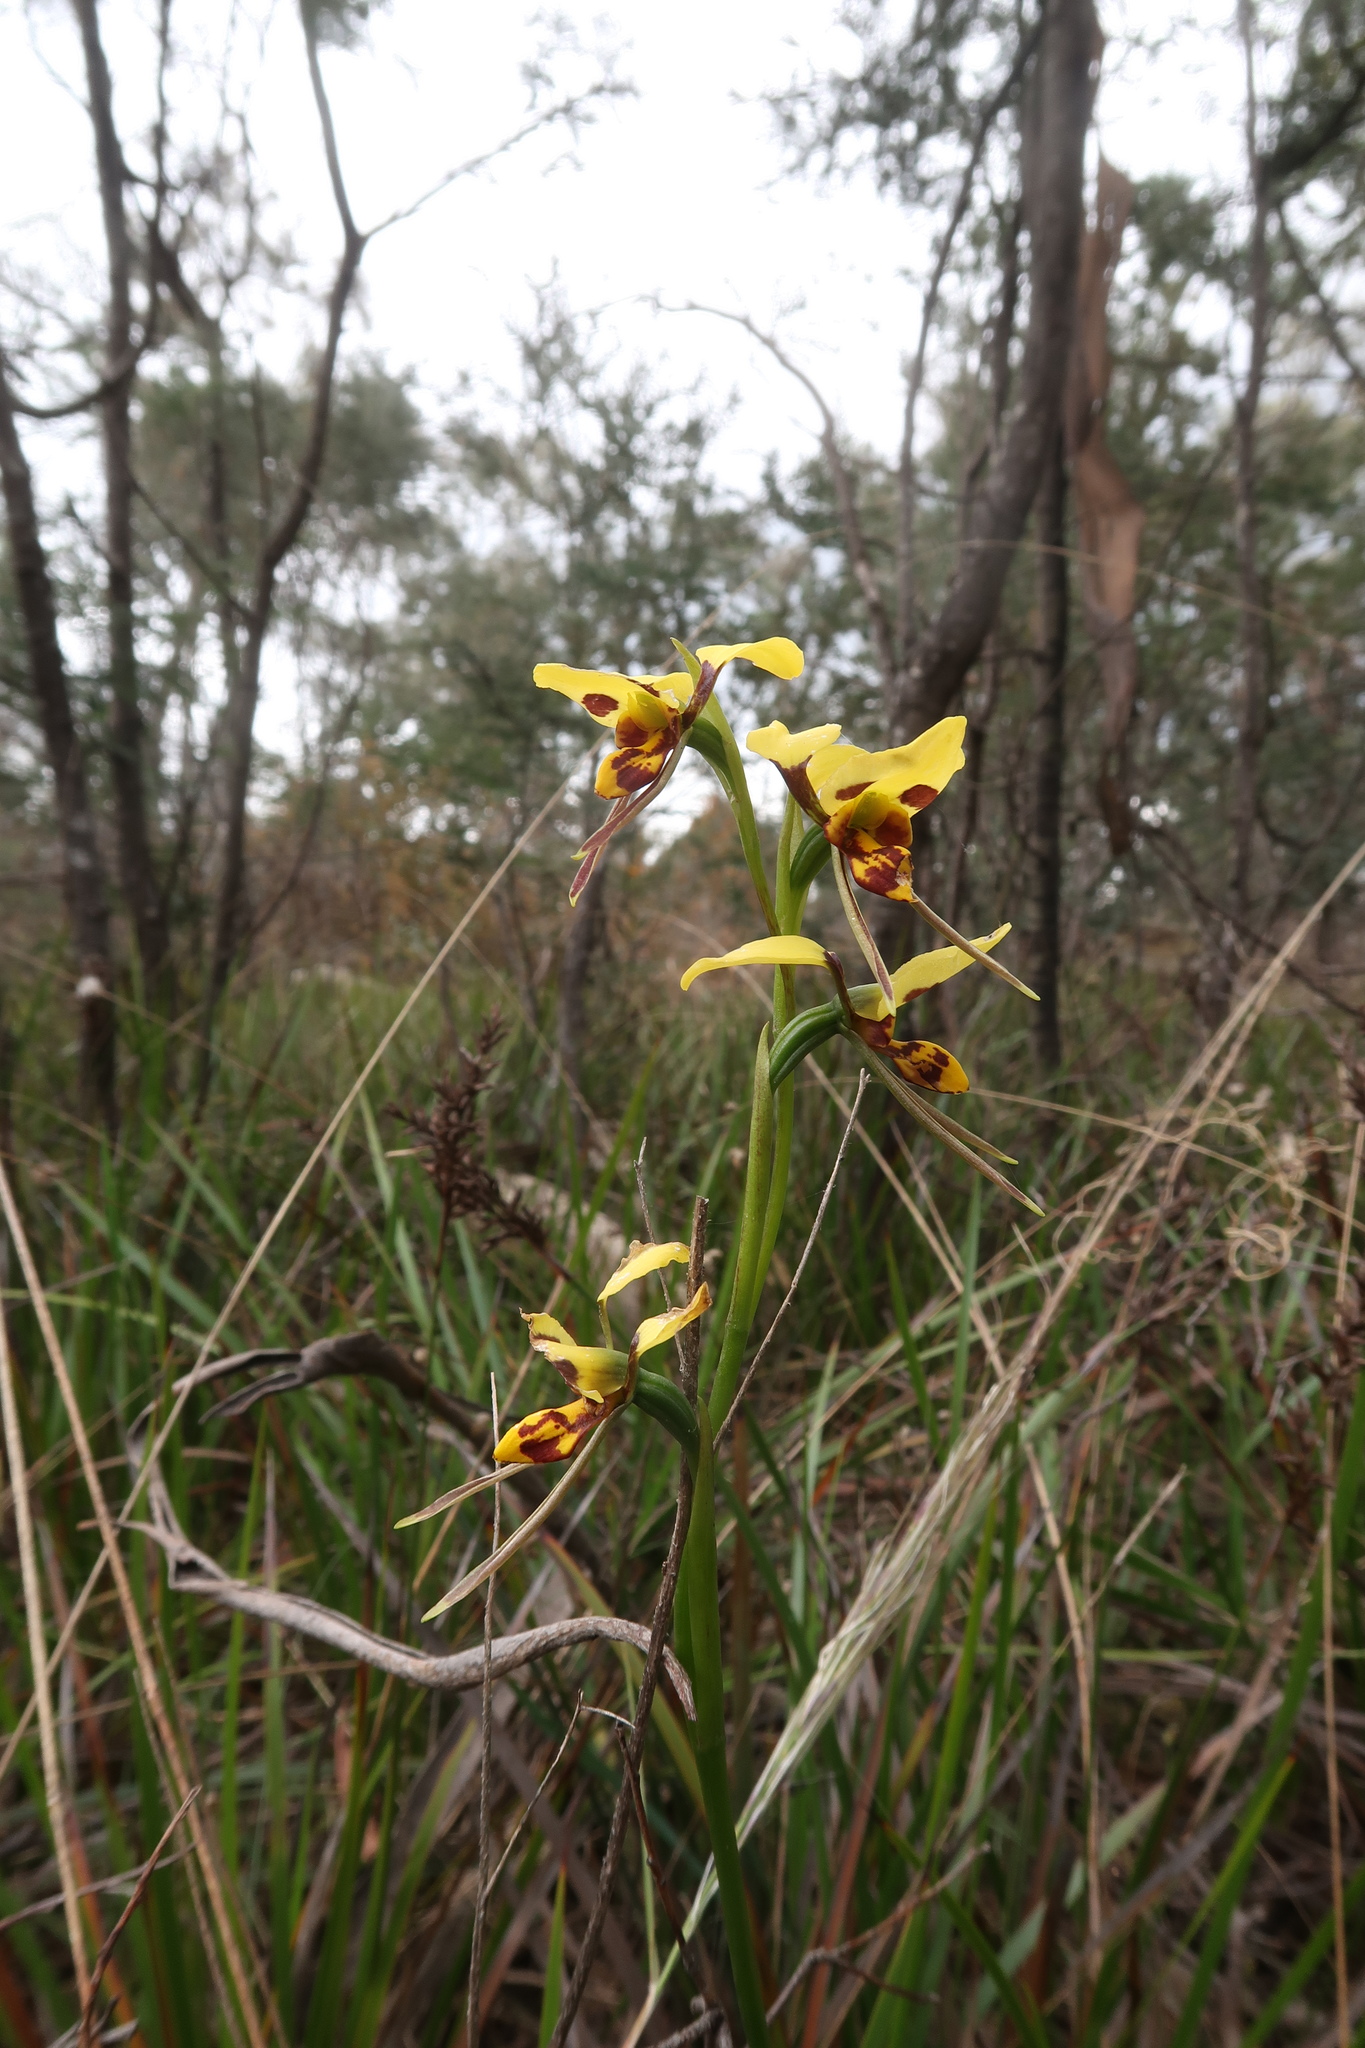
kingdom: Plantae
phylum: Tracheophyta
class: Liliopsida
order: Asparagales
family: Orchidaceae
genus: Diuris
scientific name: Diuris sulphurea
